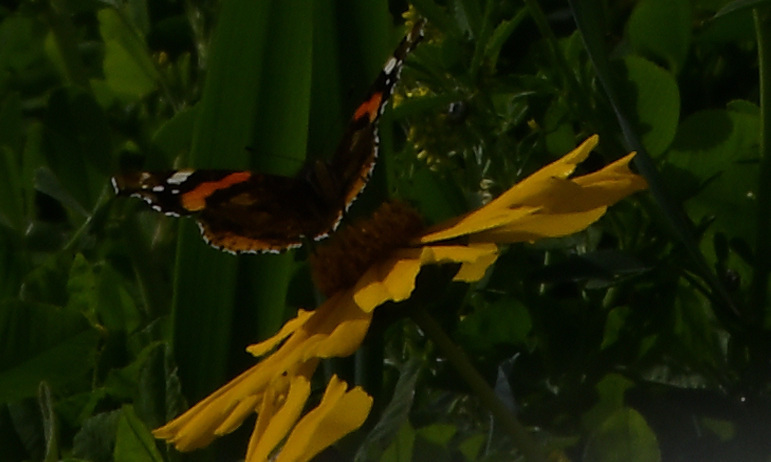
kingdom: Animalia
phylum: Arthropoda
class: Insecta
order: Lepidoptera
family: Nymphalidae
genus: Vanessa
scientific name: Vanessa atalanta
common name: Red admiral
